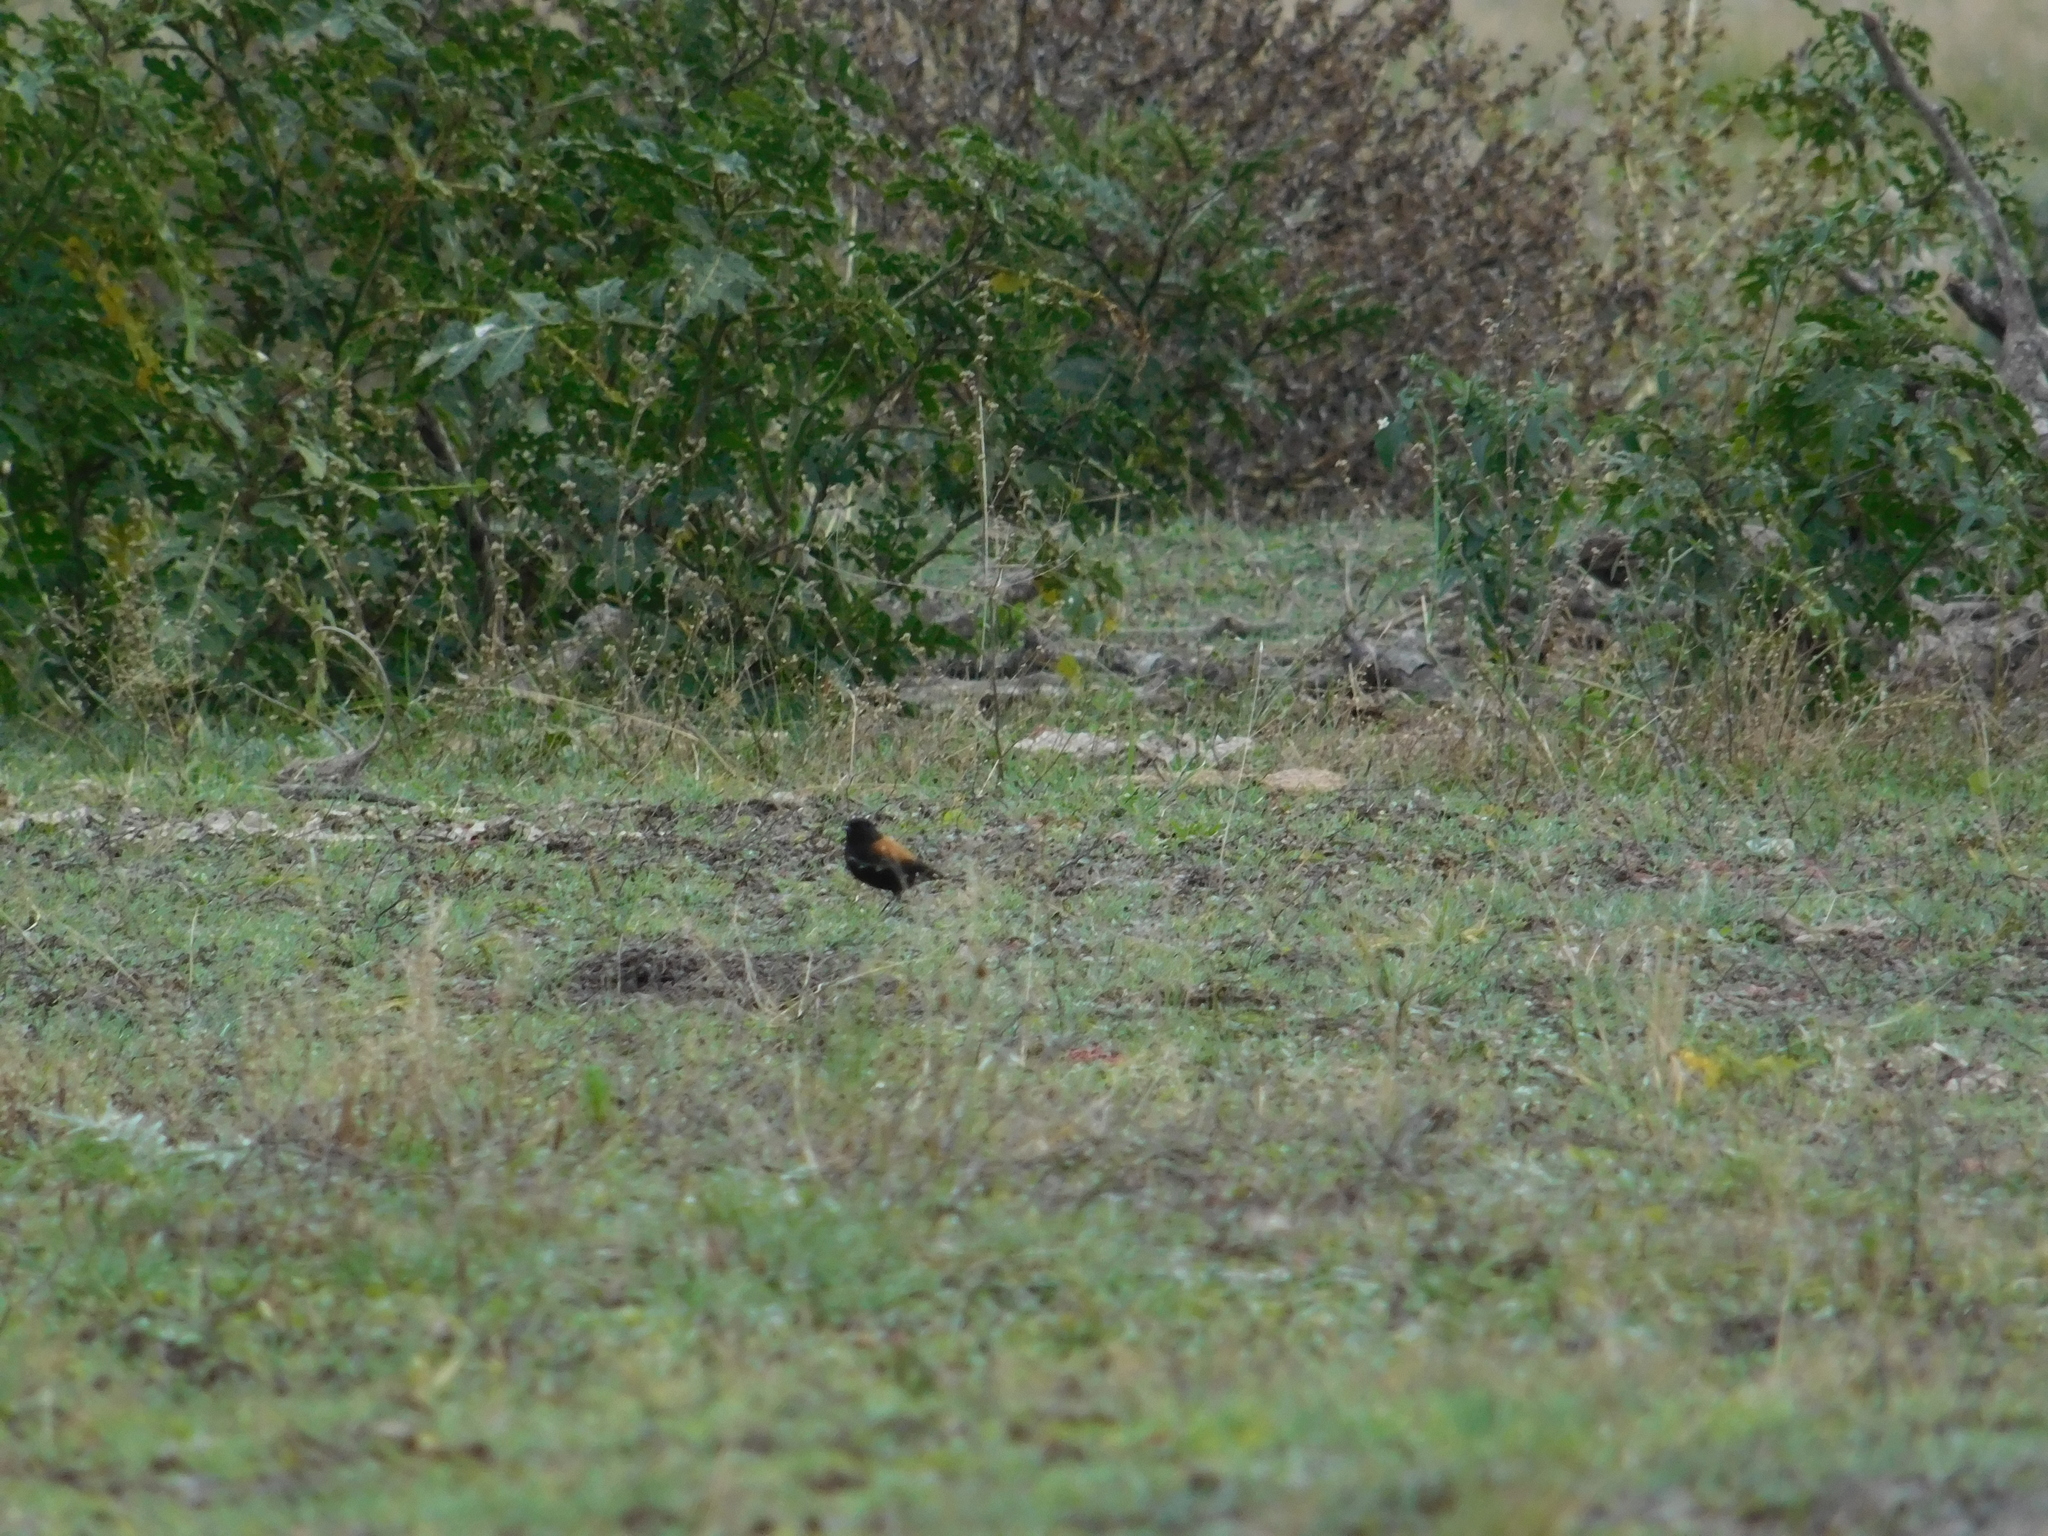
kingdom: Animalia
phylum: Chordata
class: Aves
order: Passeriformes
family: Tyrannidae
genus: Lessonia
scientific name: Lessonia rufa
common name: Austral negrito
